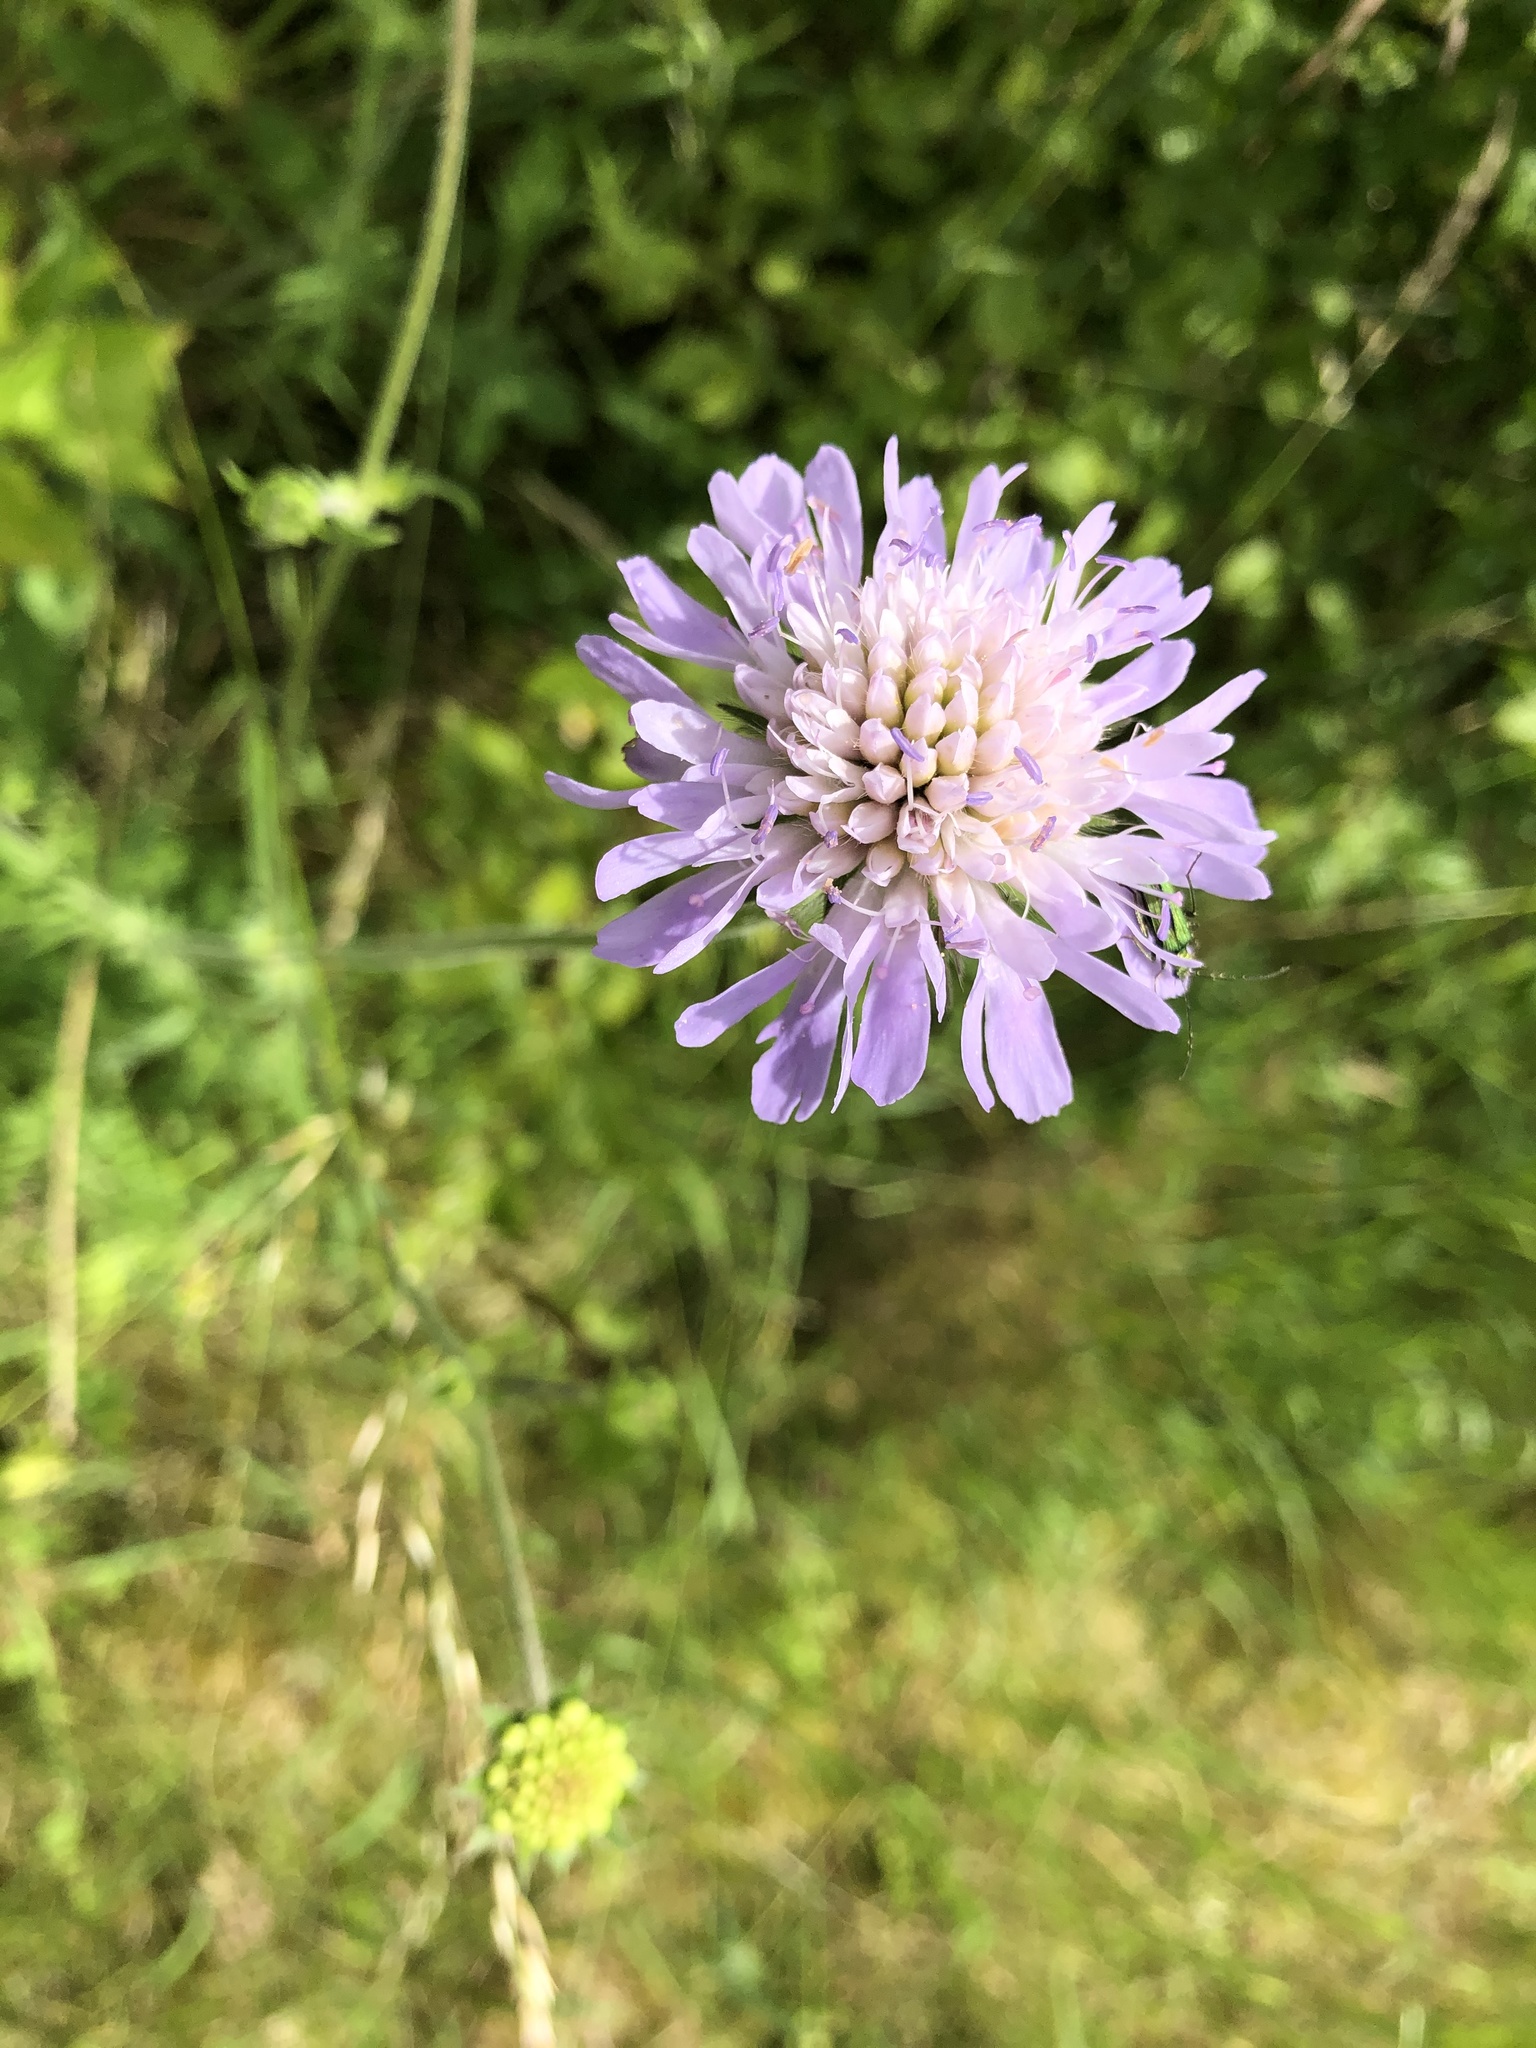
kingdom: Plantae
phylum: Tracheophyta
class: Magnoliopsida
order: Dipsacales
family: Caprifoliaceae
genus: Knautia
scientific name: Knautia arvensis
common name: Field scabiosa
